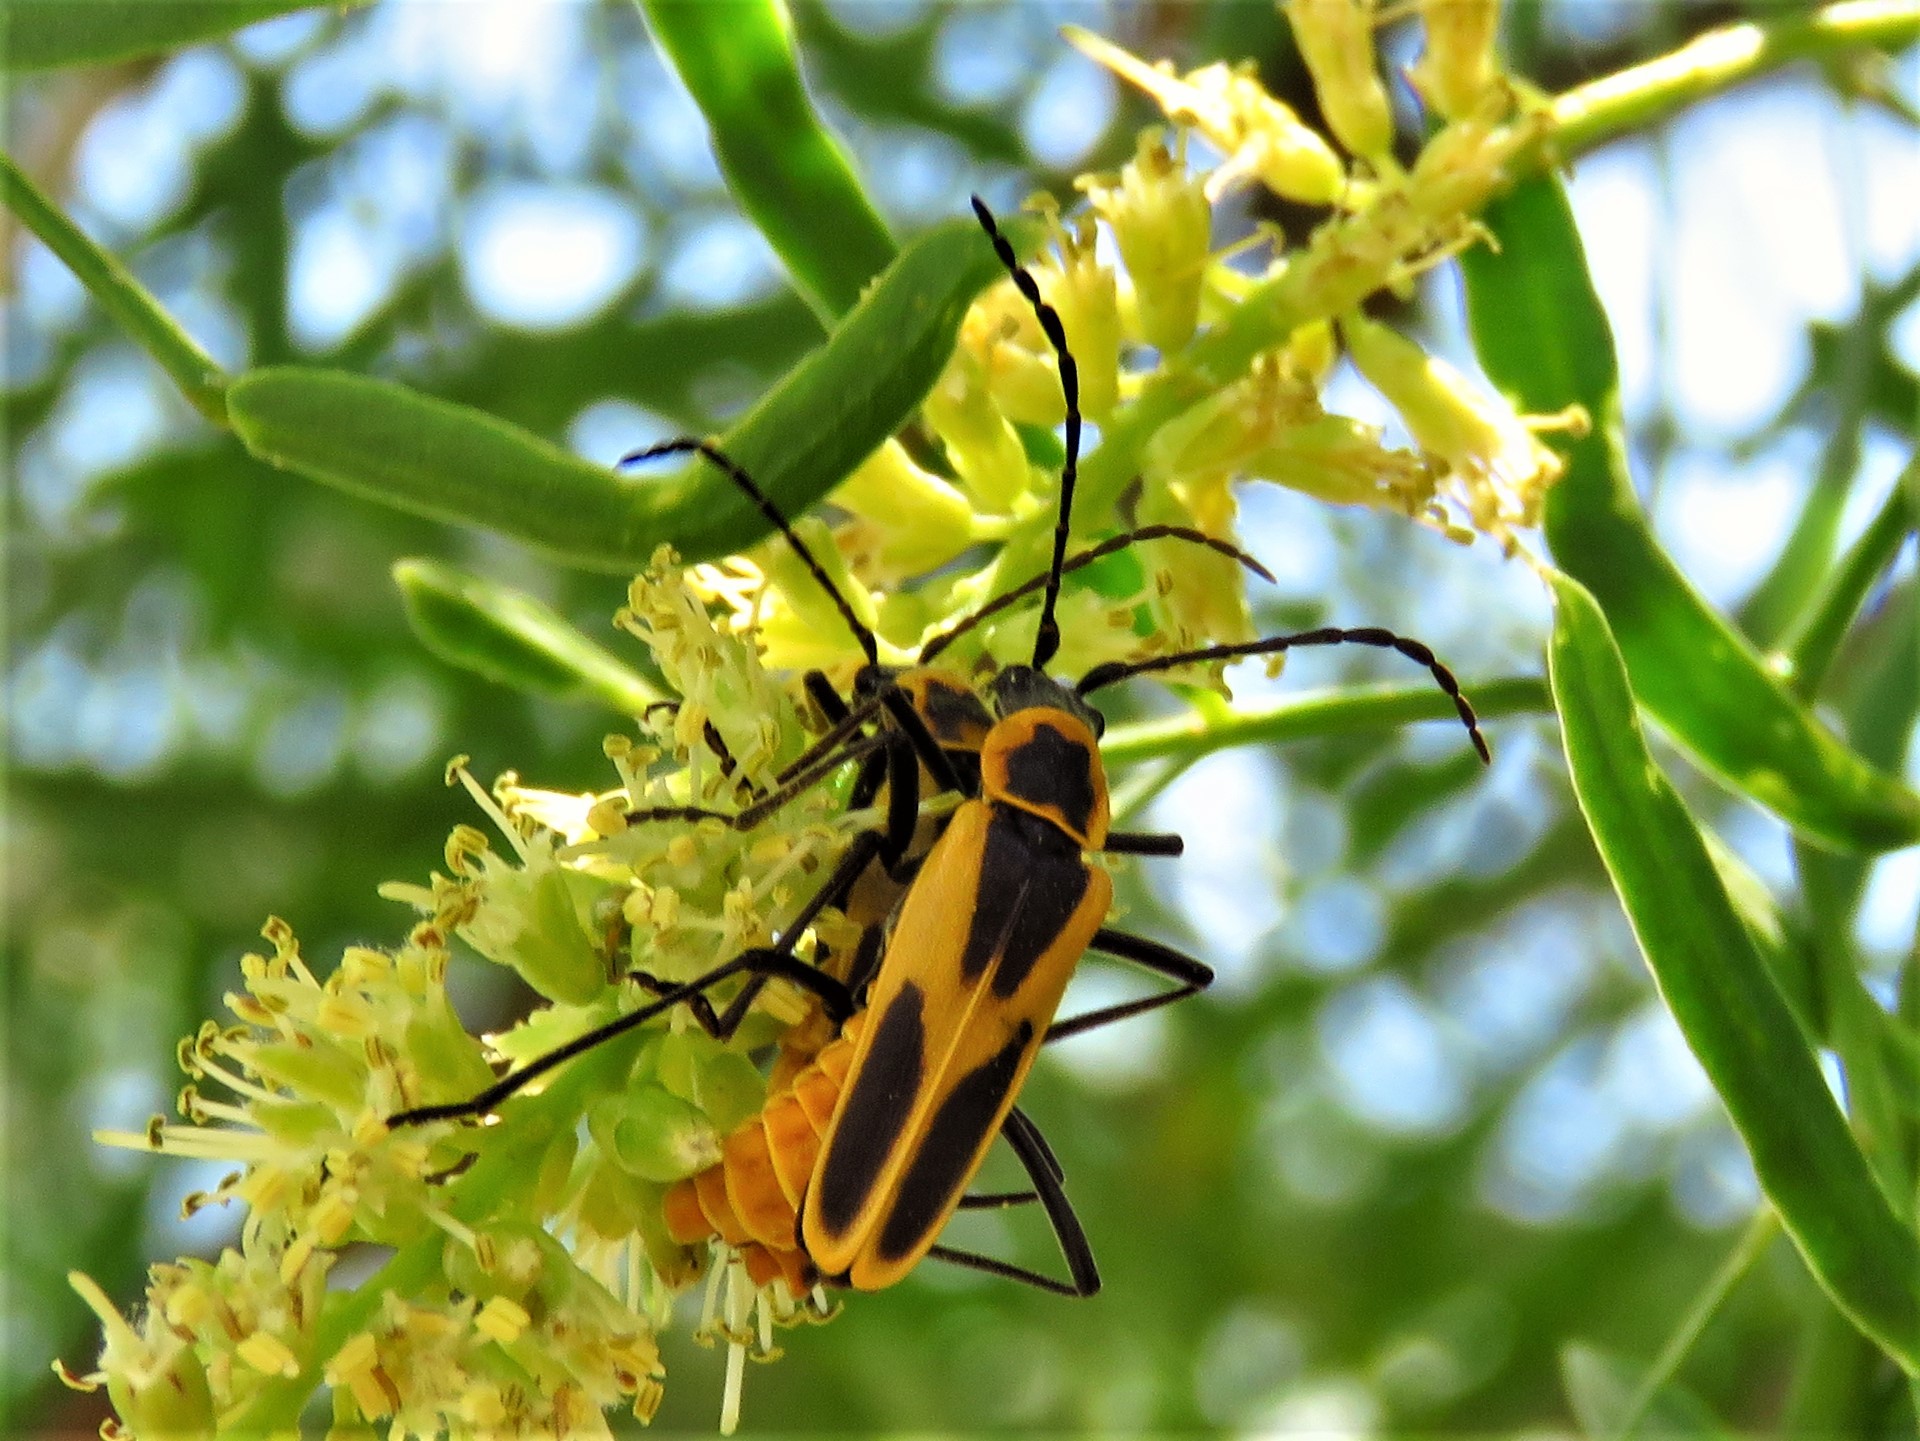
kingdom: Animalia
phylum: Arthropoda
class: Insecta
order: Coleoptera
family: Cantharidae
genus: Chauliognathus
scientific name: Chauliognathus scutellaris
